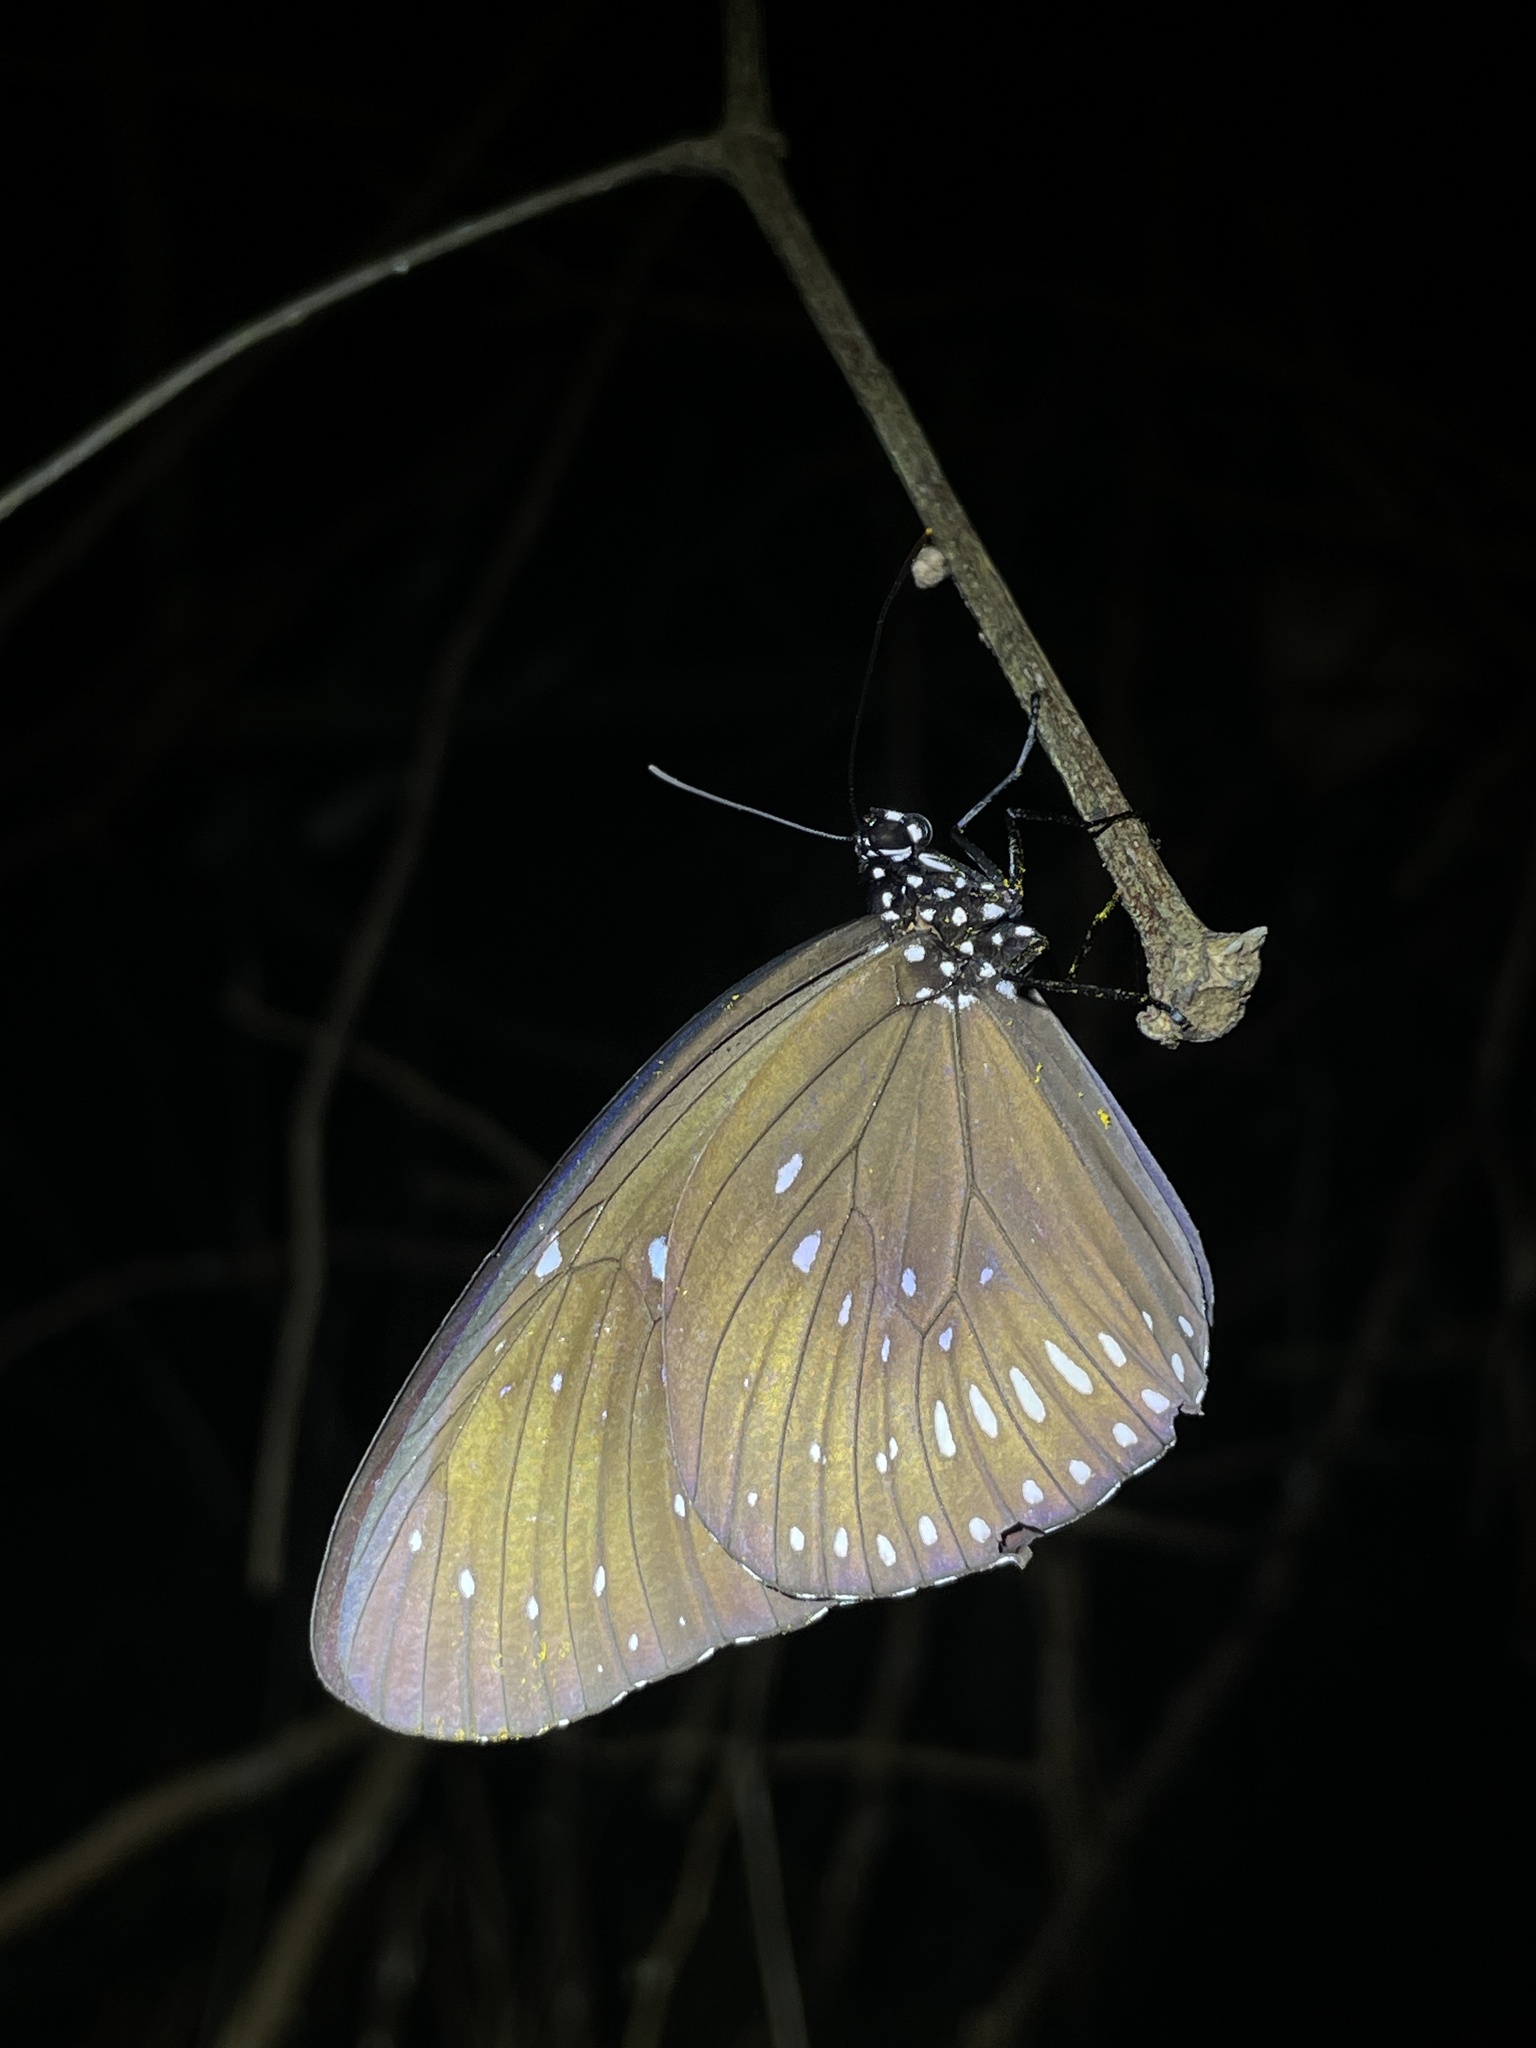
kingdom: Animalia
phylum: Arthropoda
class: Insecta
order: Lepidoptera
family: Nymphalidae
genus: Euploea
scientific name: Euploea midamus
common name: Blue-spotted crow butterfly
